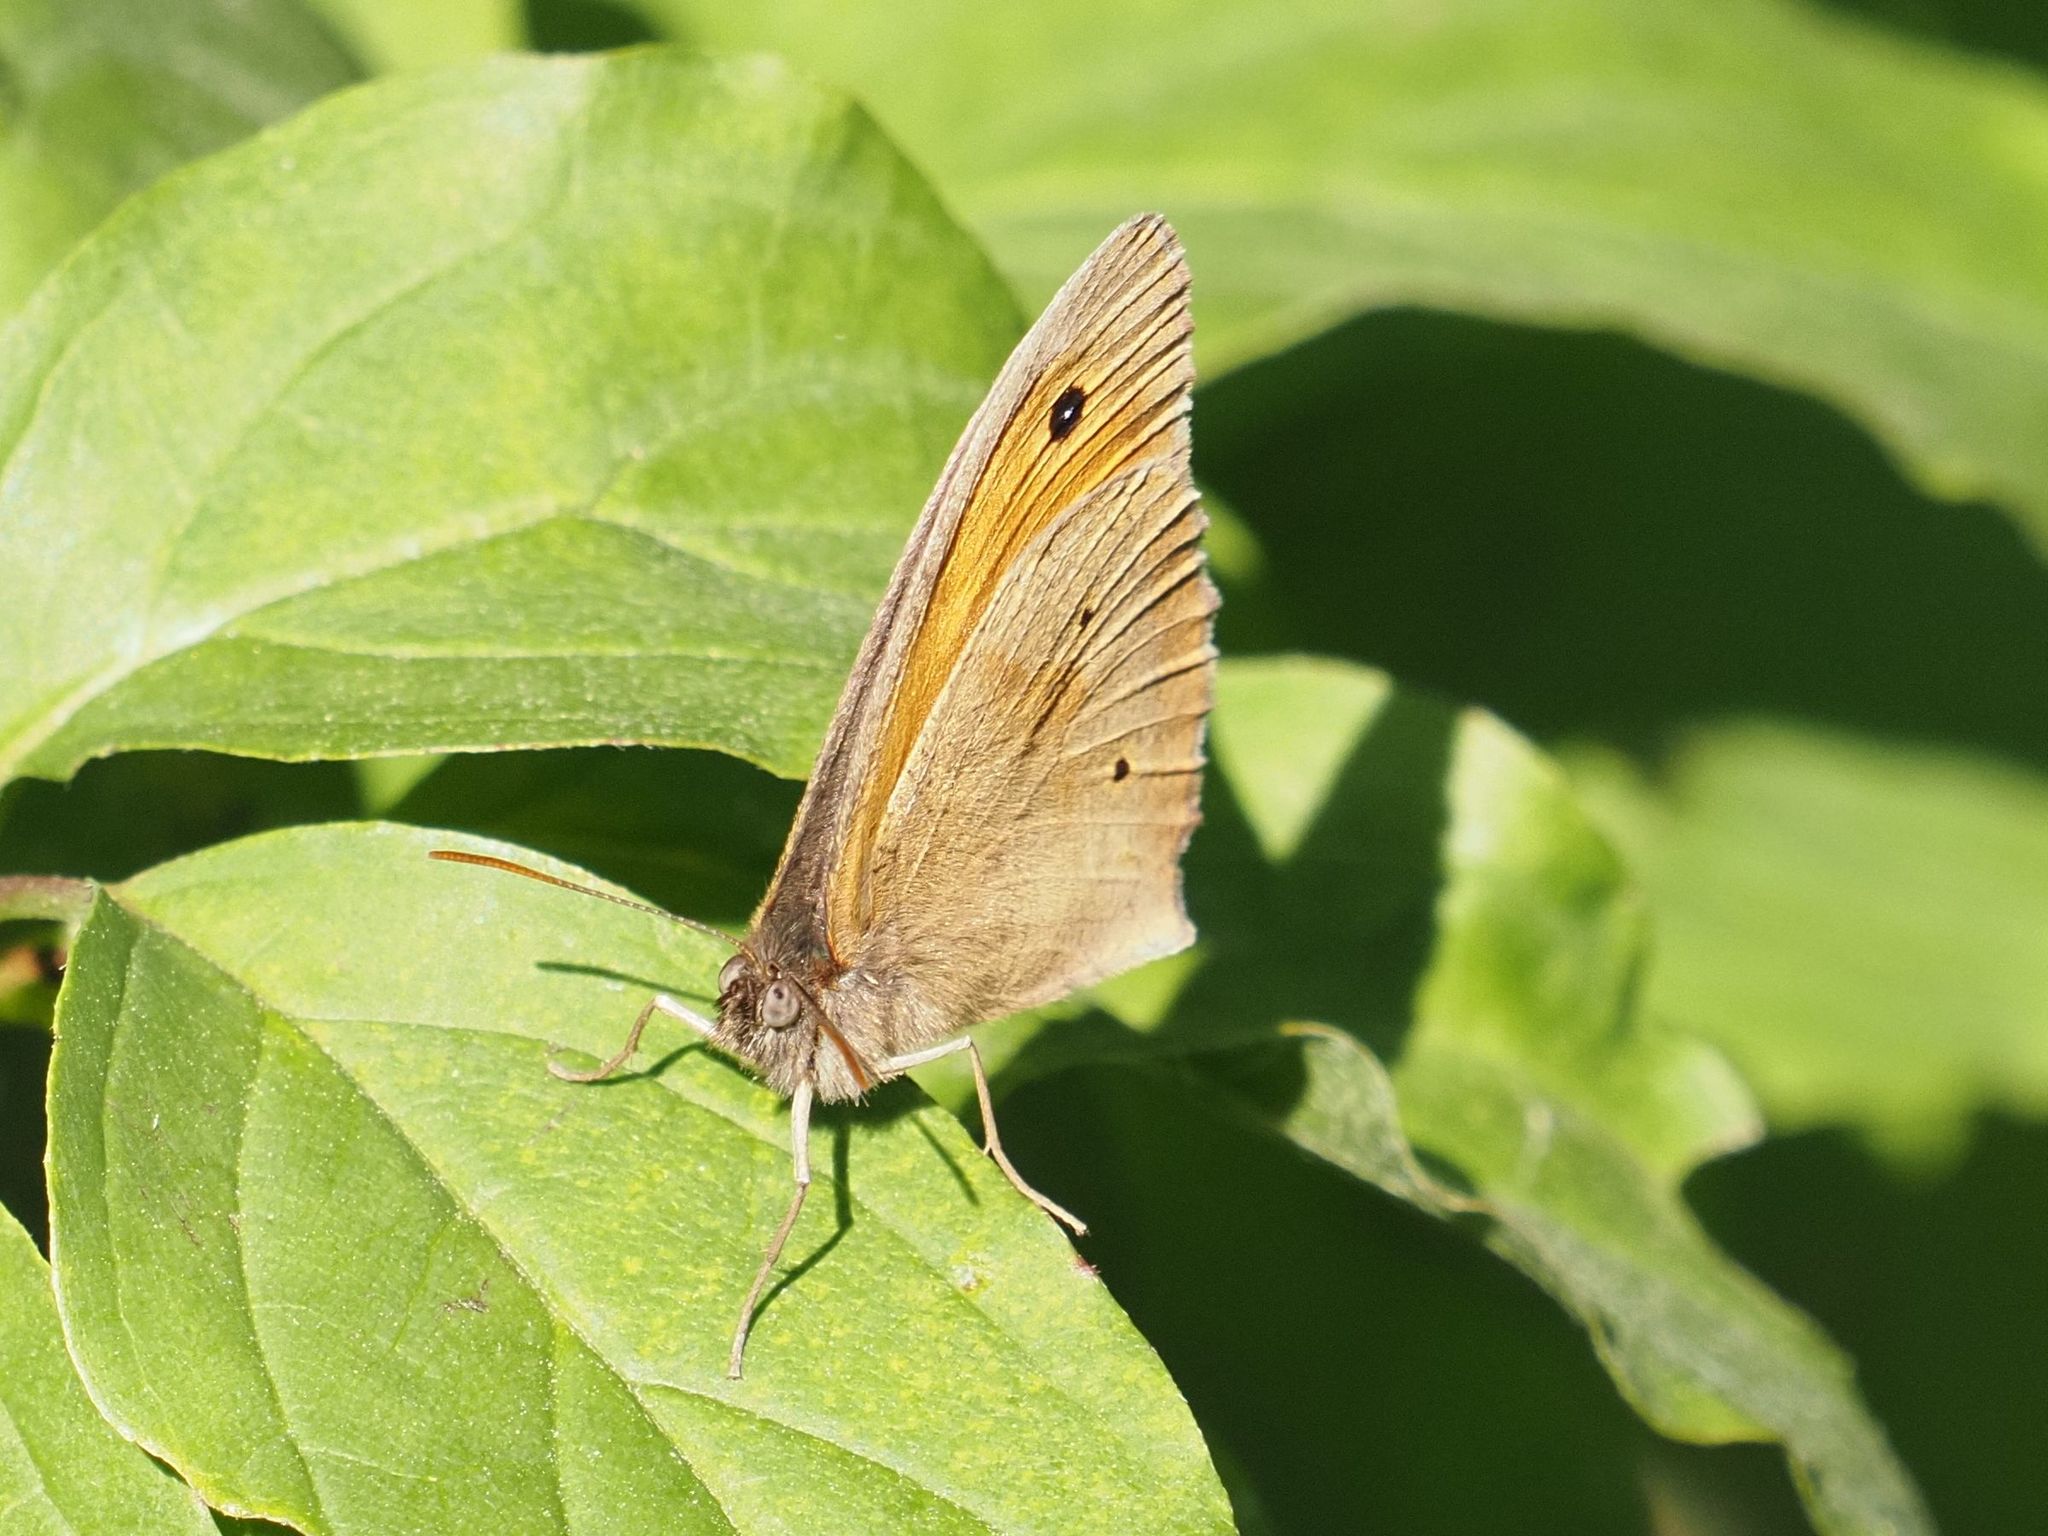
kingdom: Animalia
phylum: Arthropoda
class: Insecta
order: Lepidoptera
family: Nymphalidae
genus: Maniola
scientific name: Maniola jurtina
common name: Meadow brown
